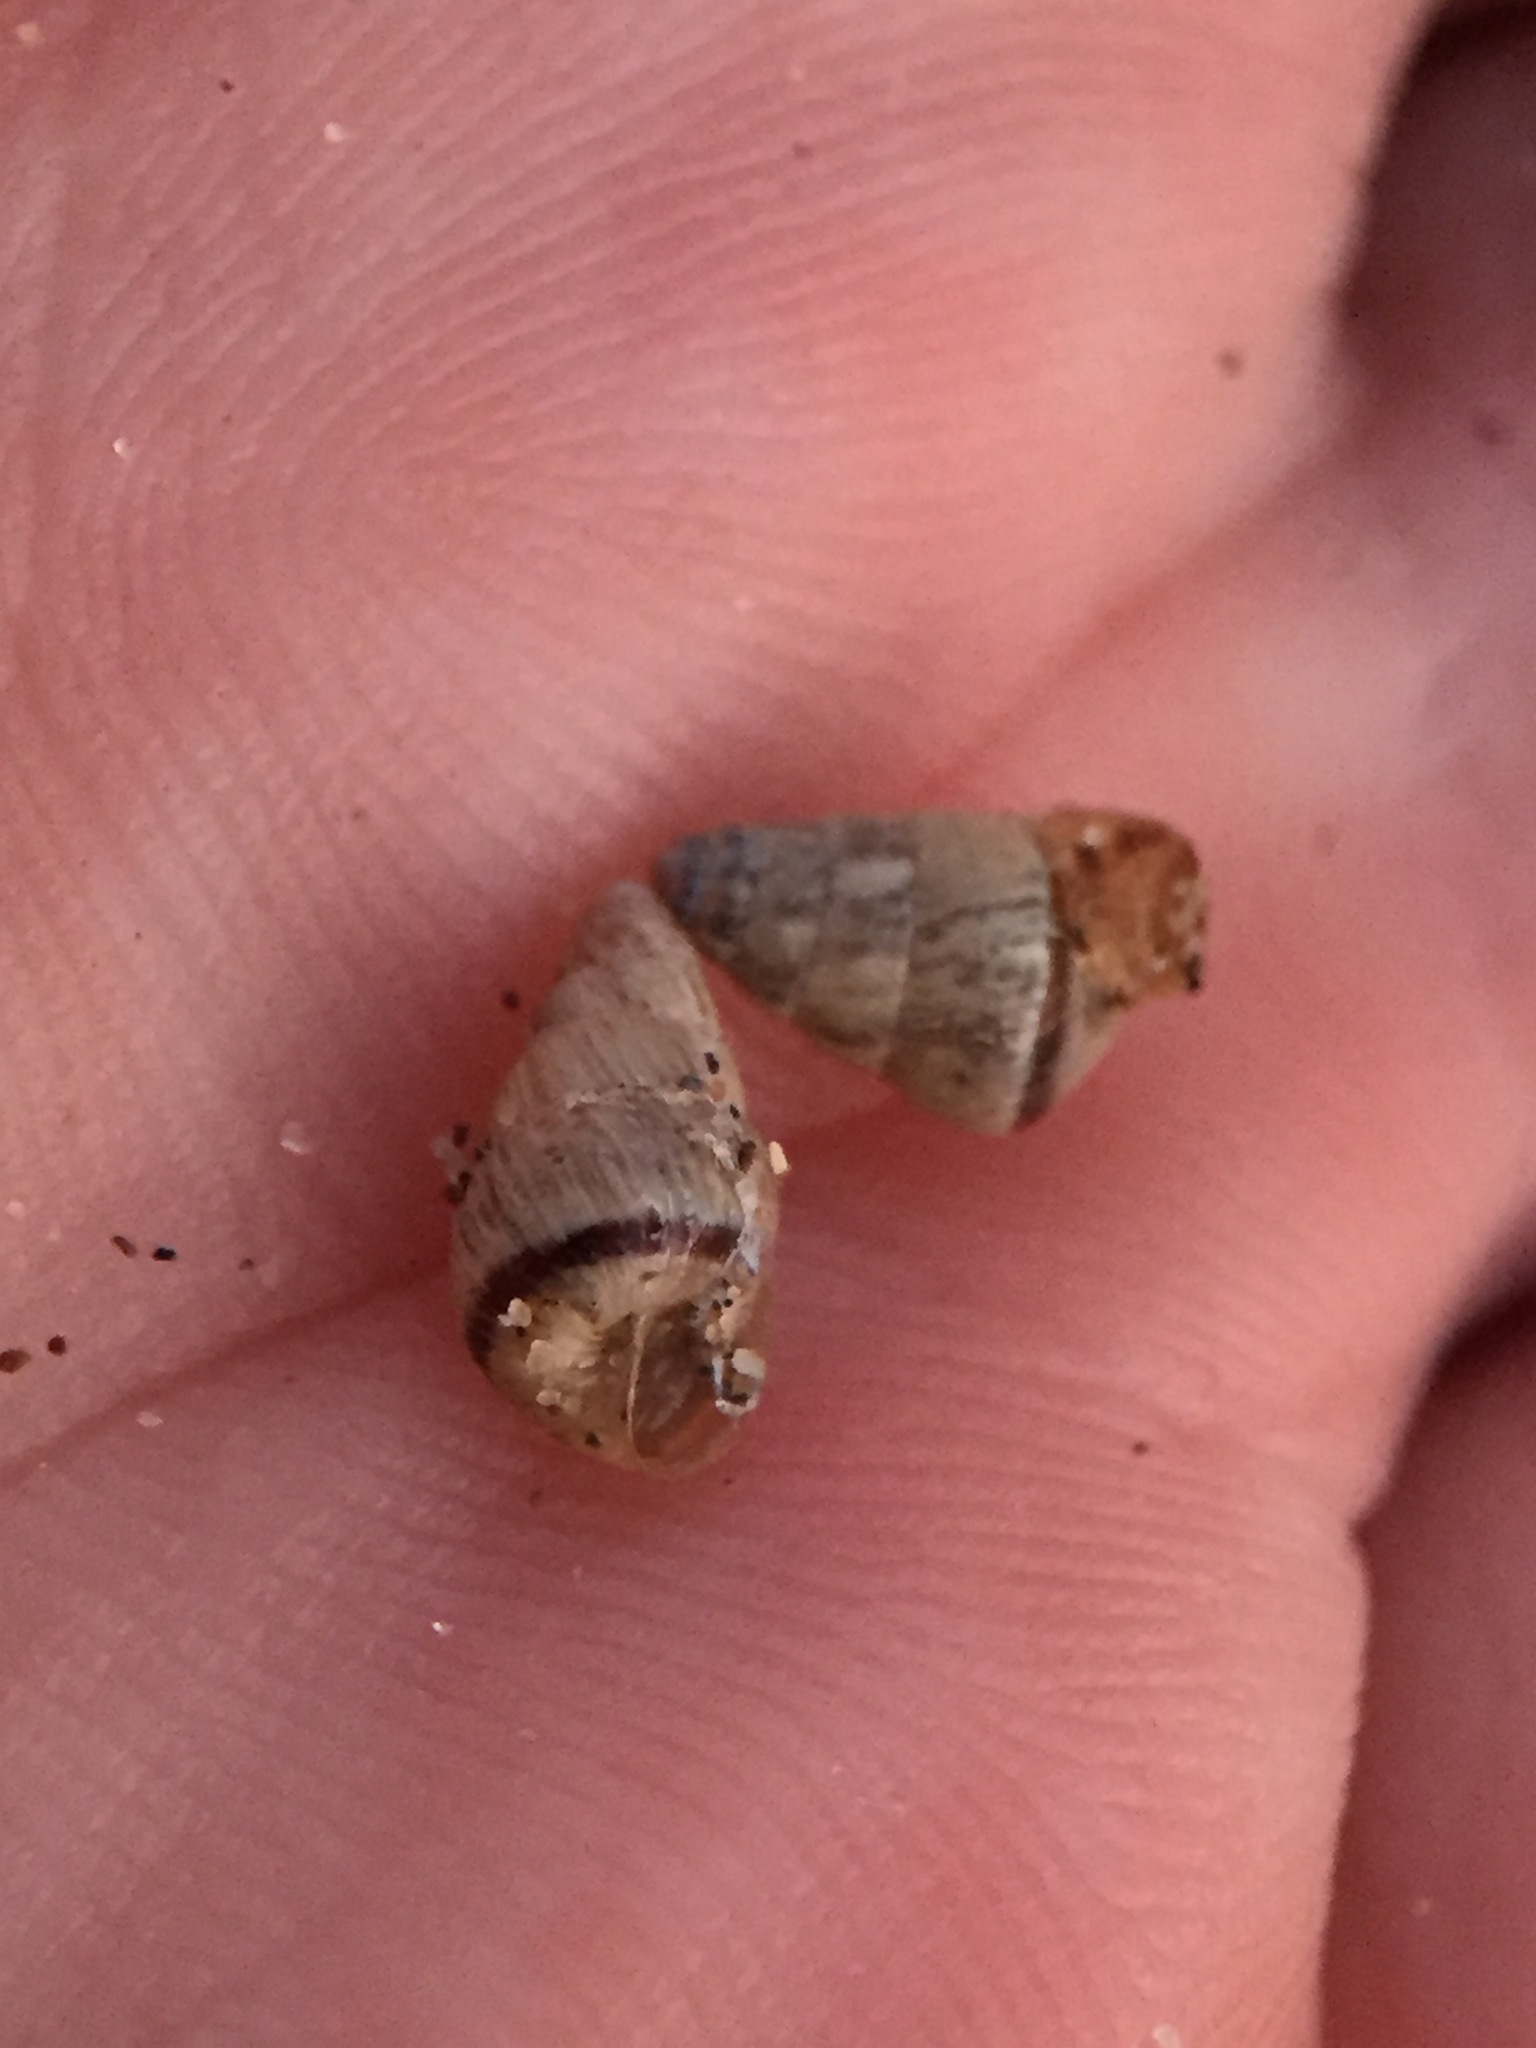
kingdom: Animalia
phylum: Mollusca
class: Gastropoda
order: Stylommatophora
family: Geomitridae
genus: Cochlicella
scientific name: Cochlicella barbara
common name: Potbellied helicellid
